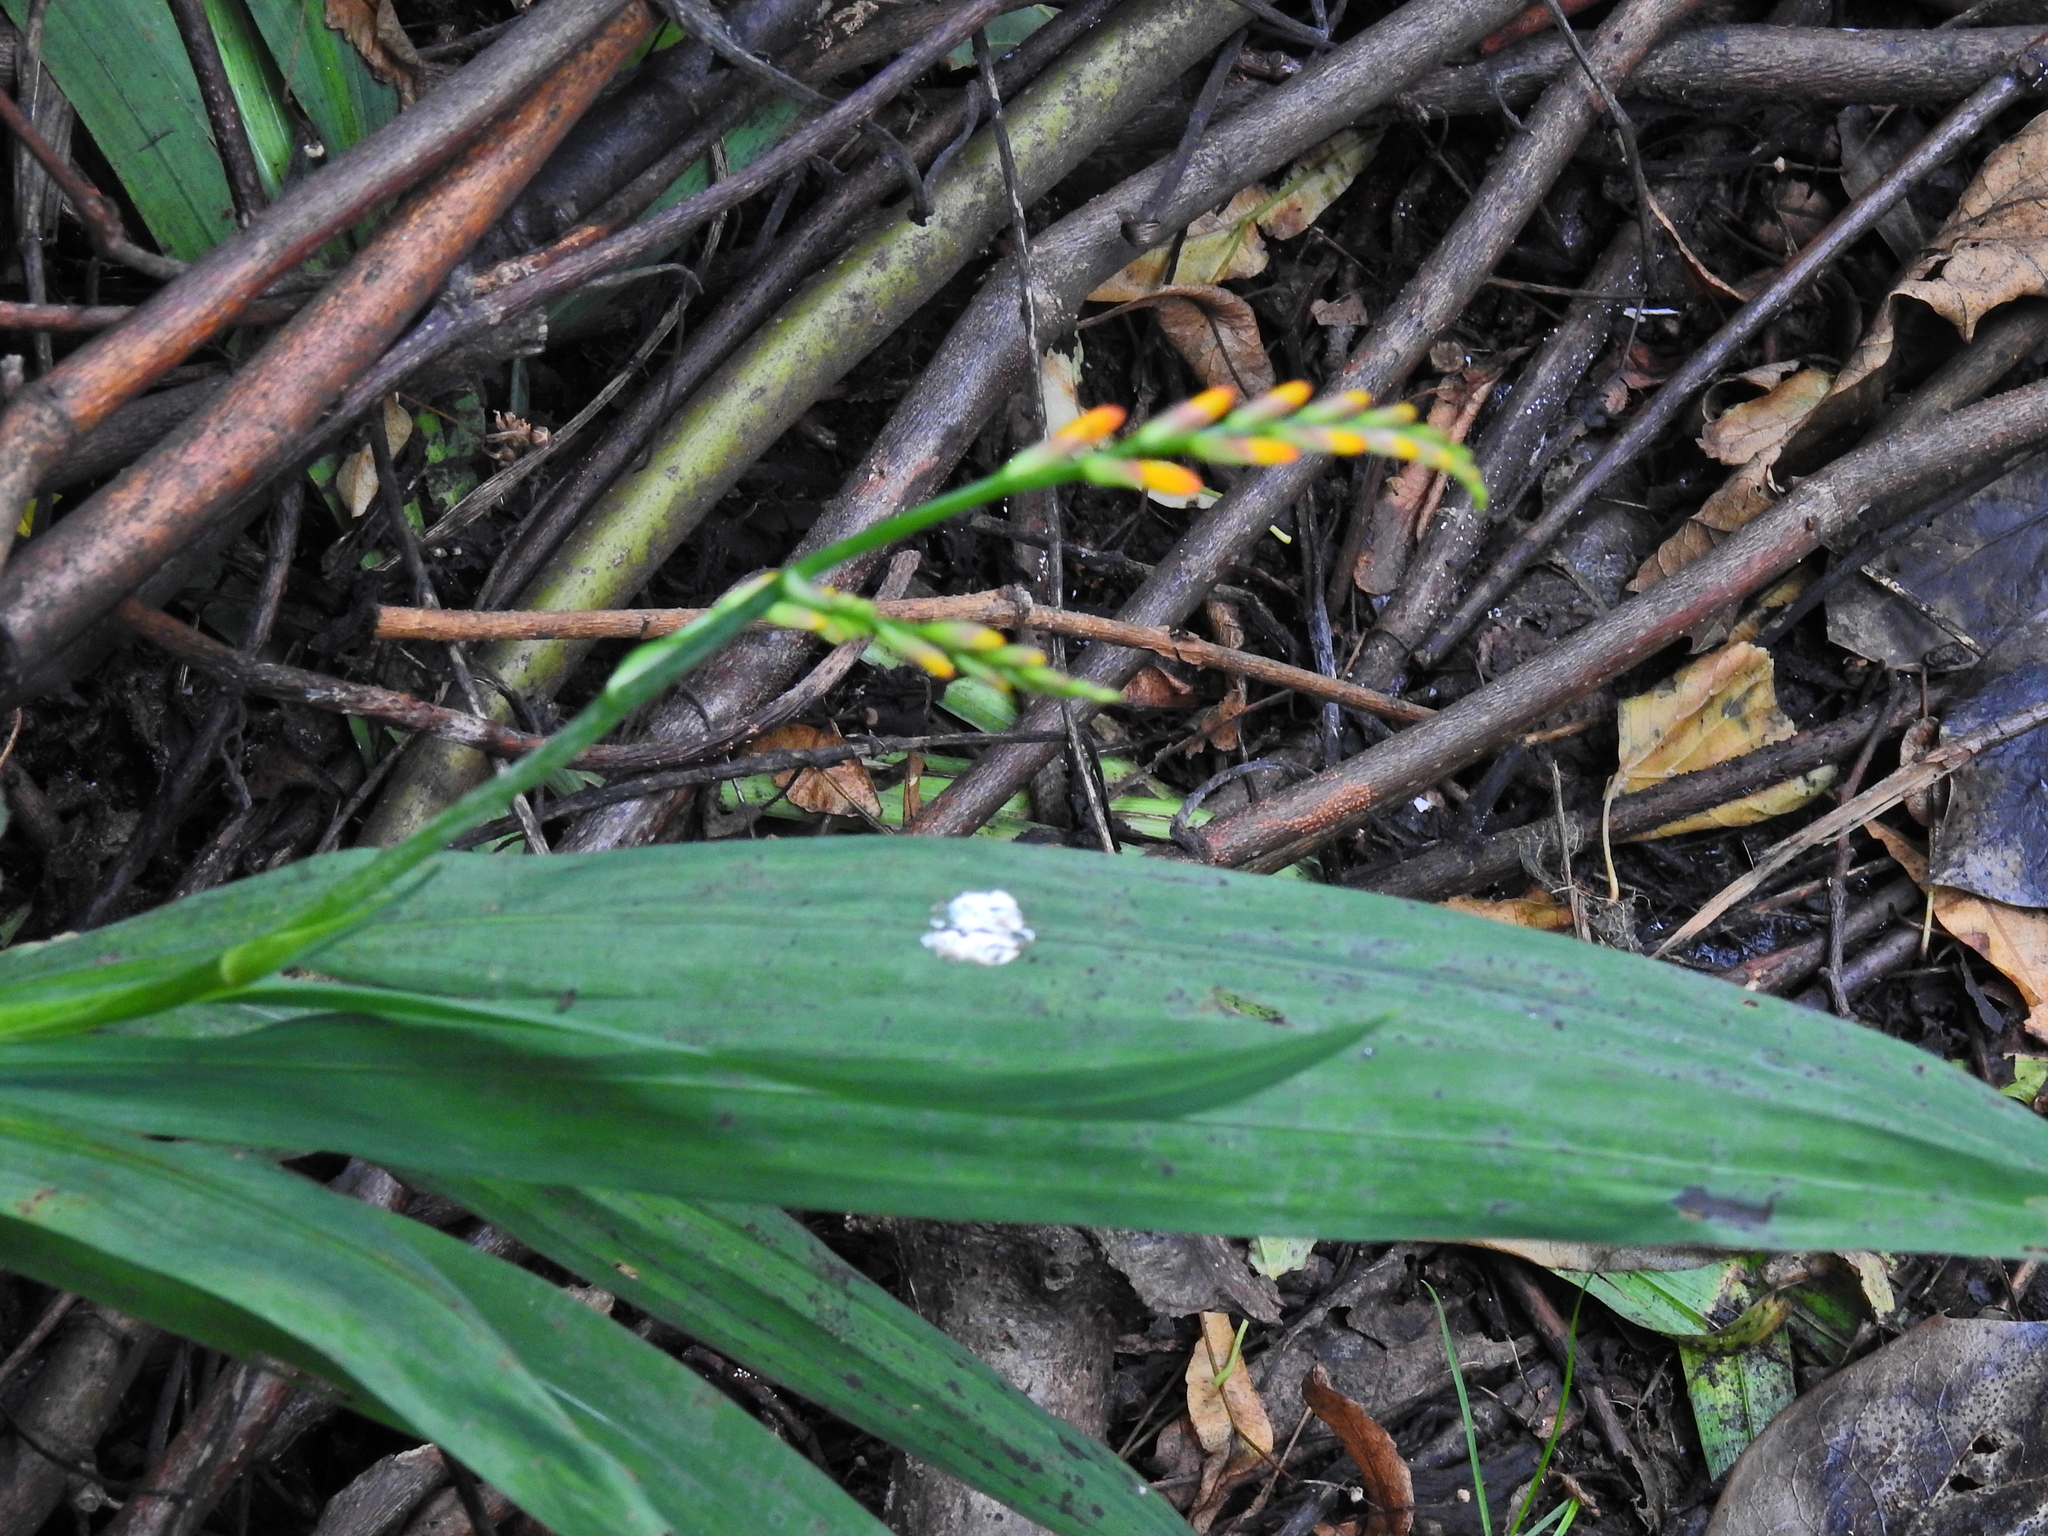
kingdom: Plantae
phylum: Tracheophyta
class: Liliopsida
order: Asparagales
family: Iridaceae
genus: Crocosmia
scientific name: Crocosmia crocosmiiflora
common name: Montbretia
